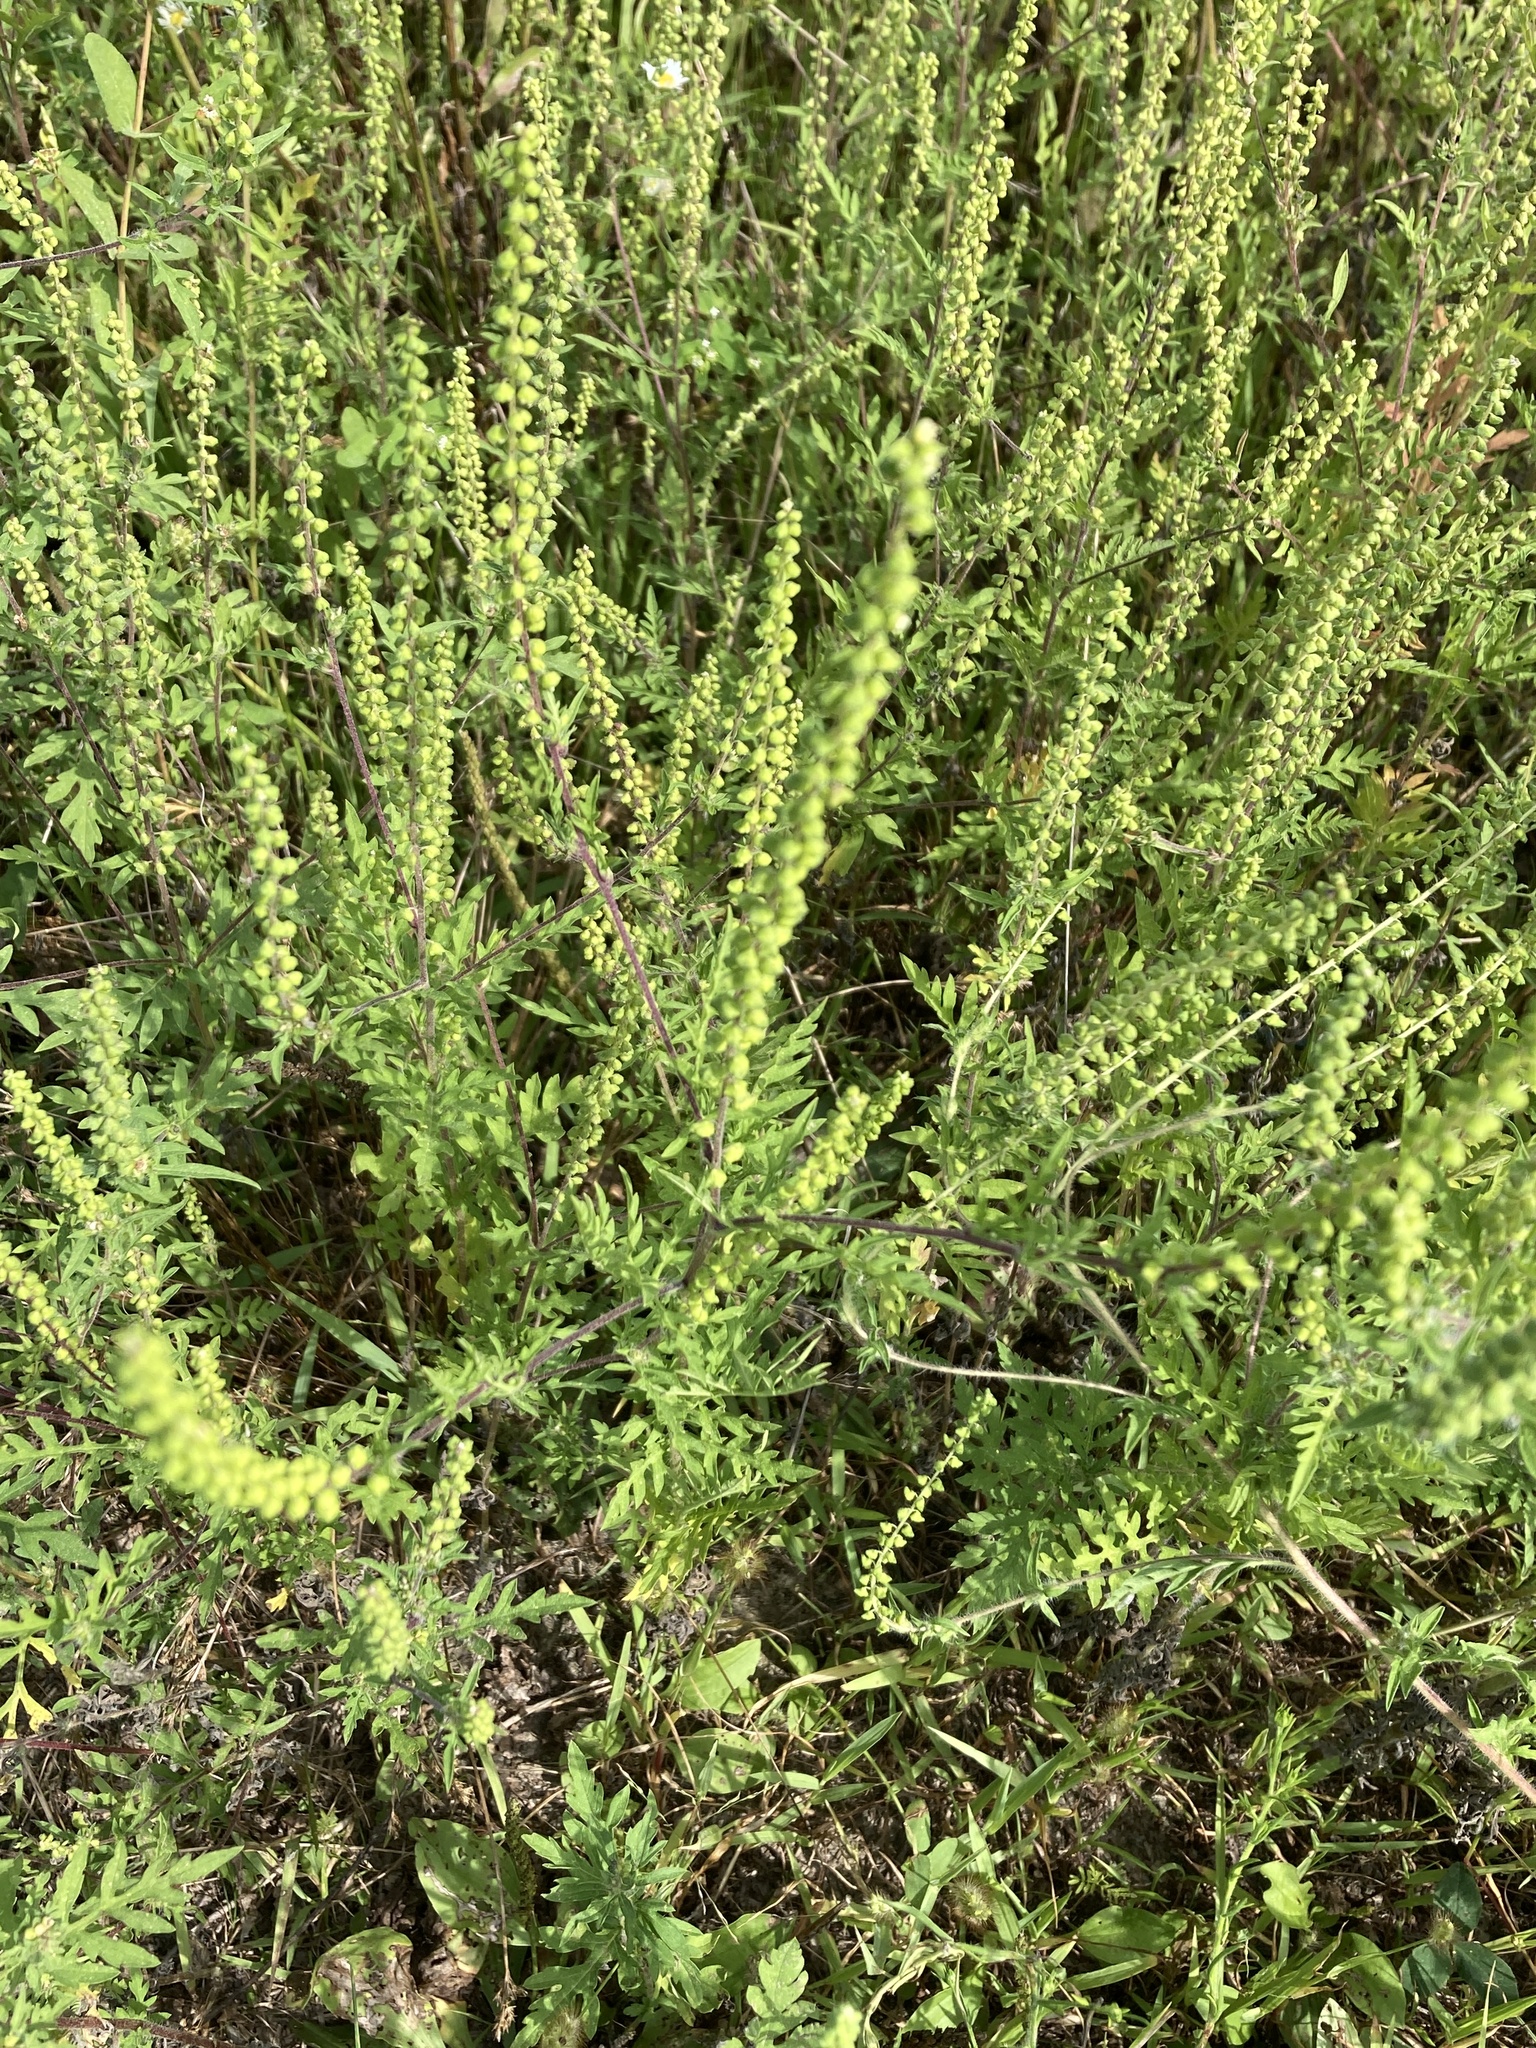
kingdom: Plantae
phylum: Tracheophyta
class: Magnoliopsida
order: Asterales
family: Asteraceae
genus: Ambrosia
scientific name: Ambrosia artemisiifolia
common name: Annual ragweed
